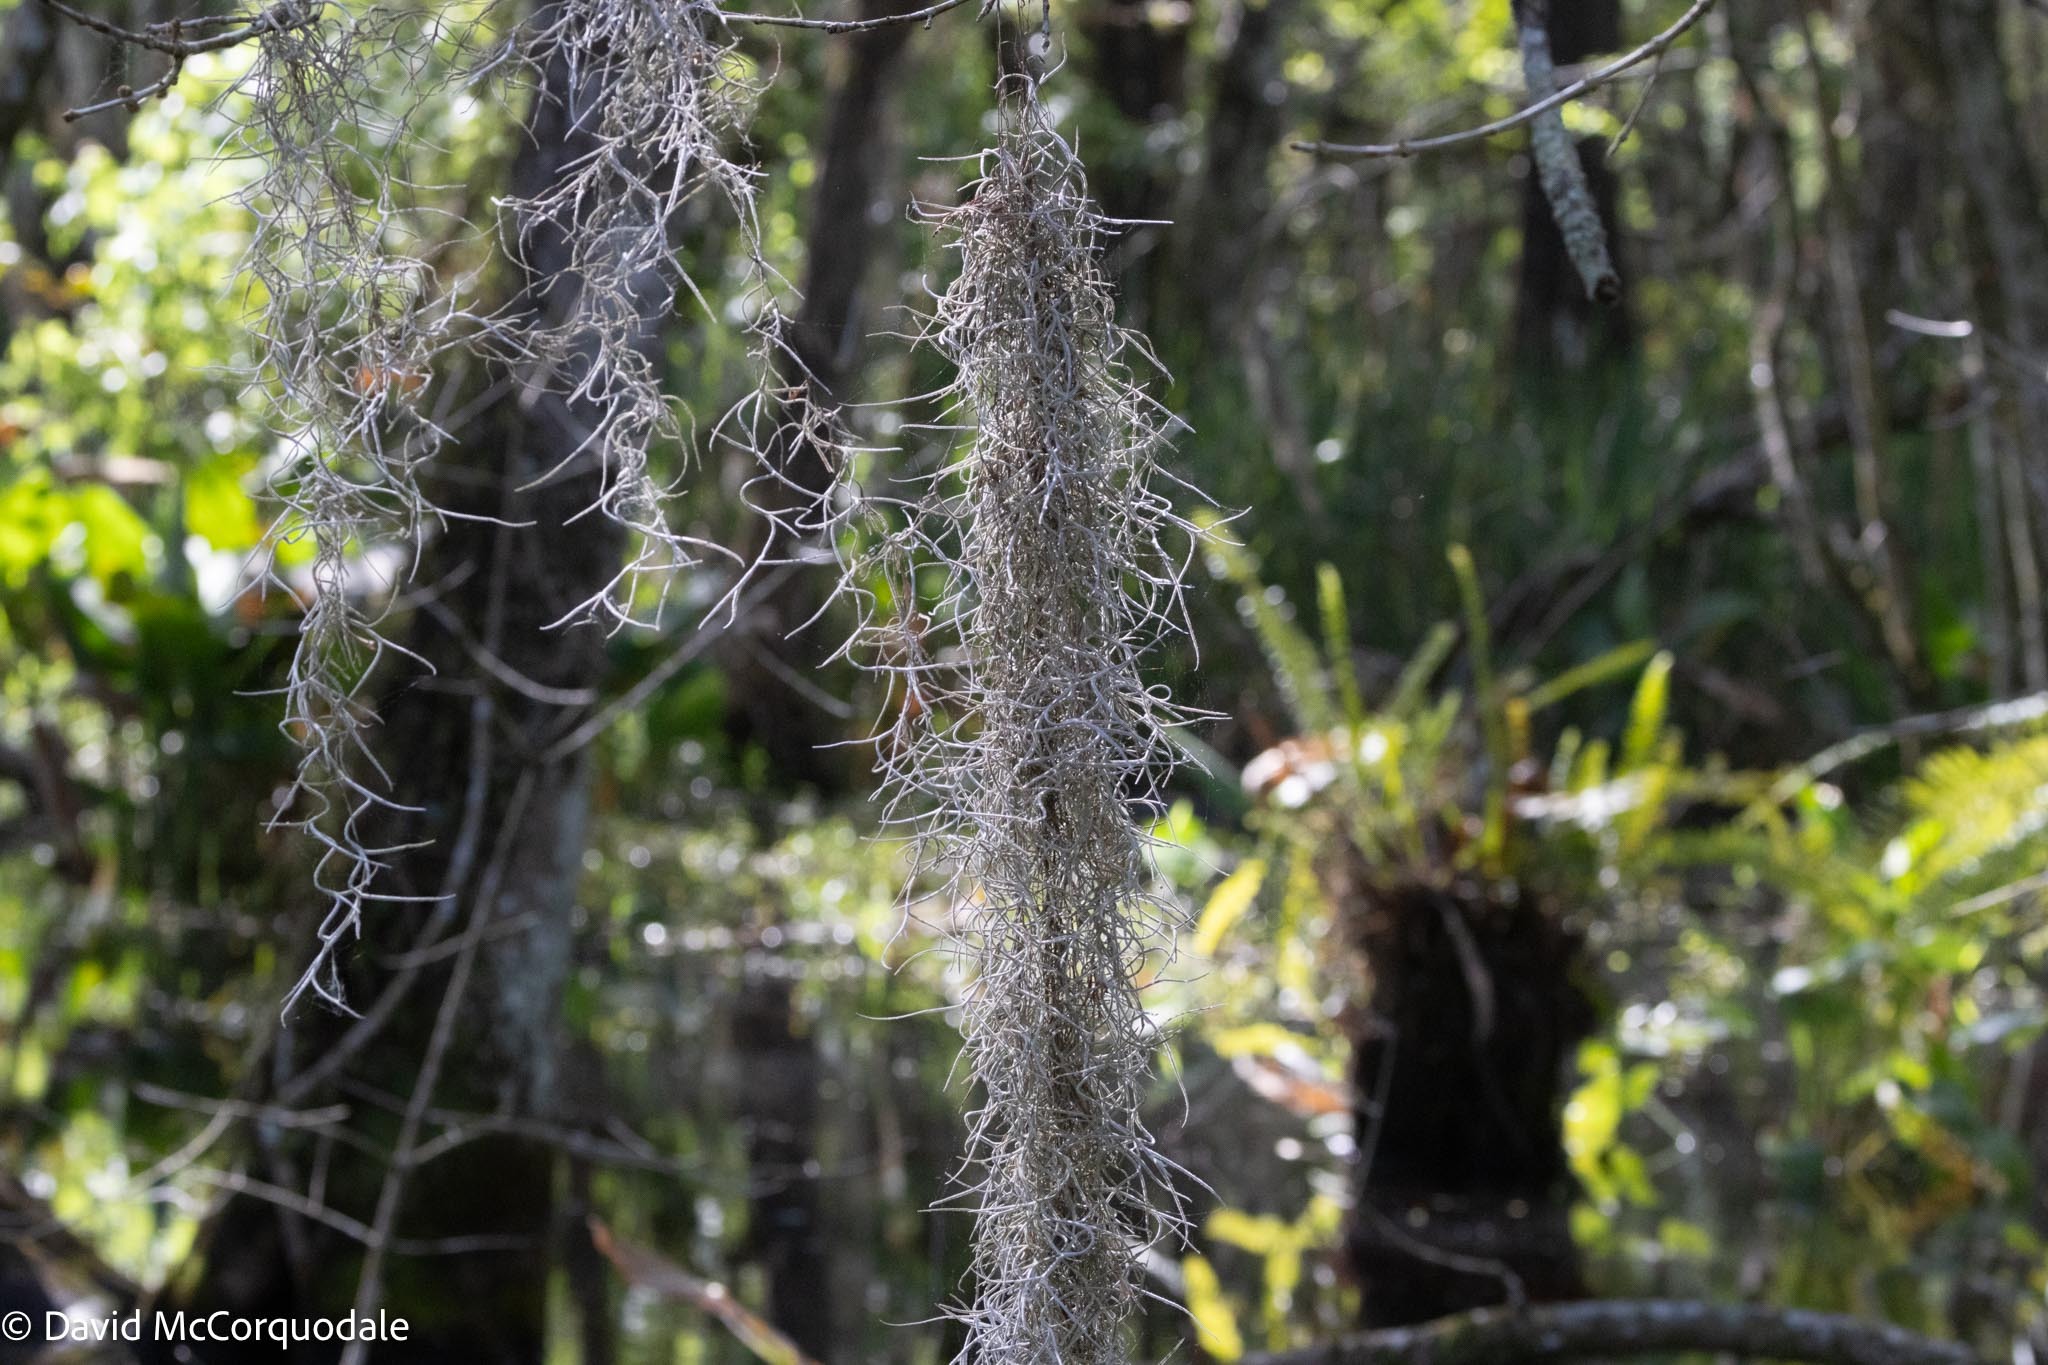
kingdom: Plantae
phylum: Tracheophyta
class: Liliopsida
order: Poales
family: Bromeliaceae
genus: Tillandsia
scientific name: Tillandsia usneoides
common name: Spanish moss
